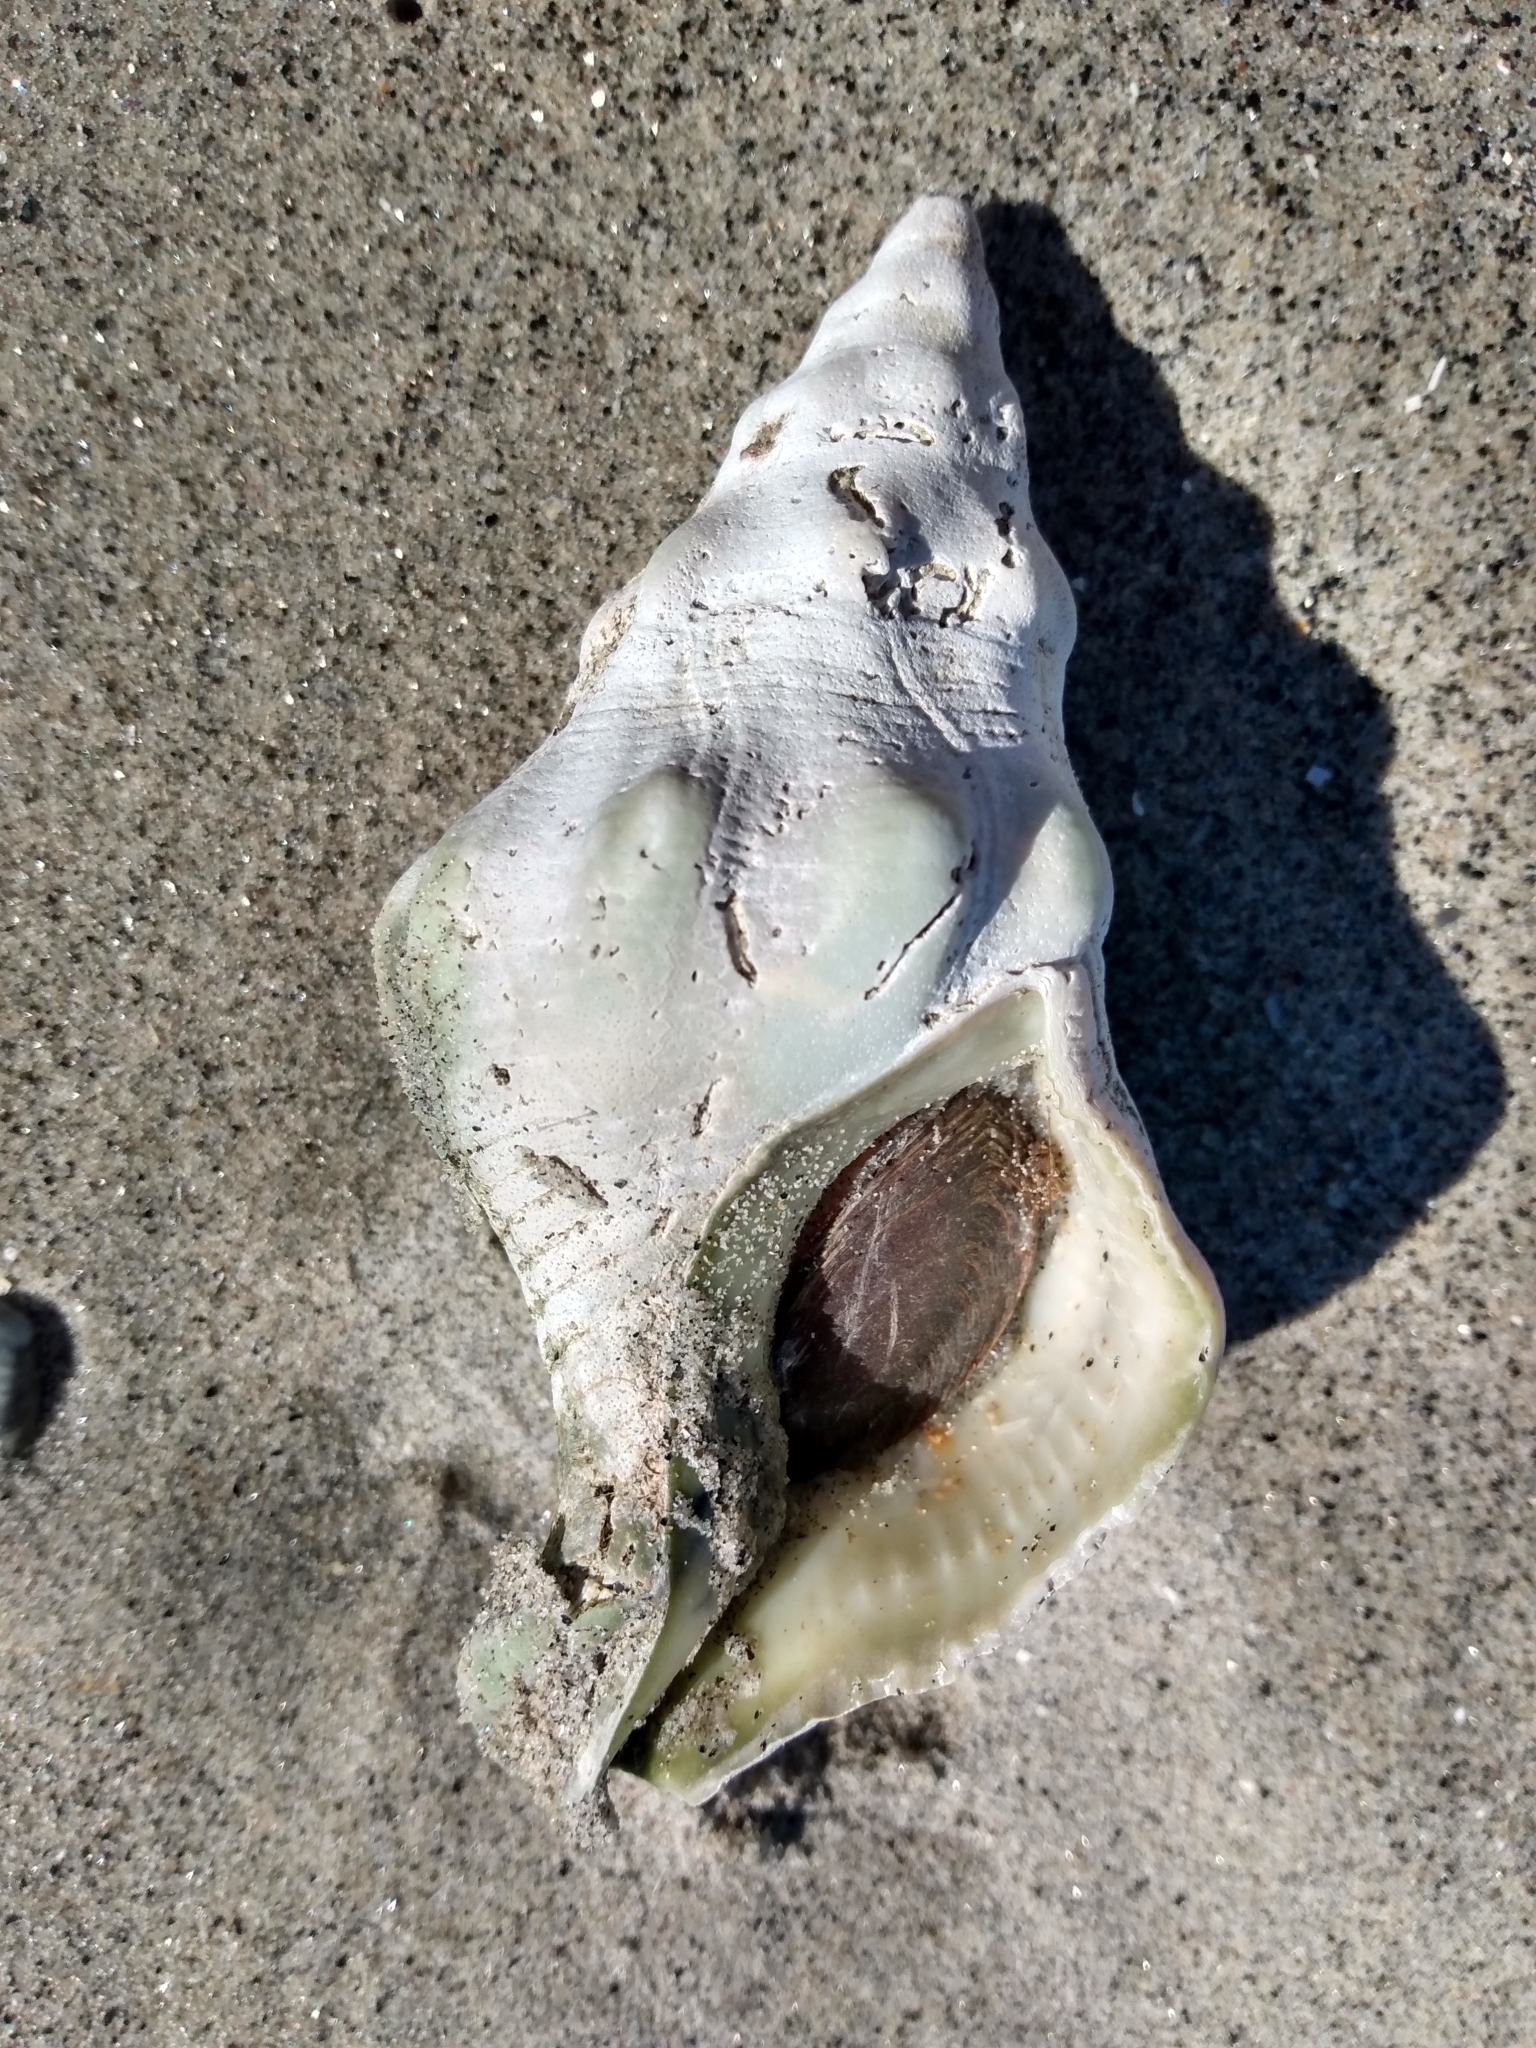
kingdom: Animalia
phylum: Mollusca
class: Gastropoda
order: Neogastropoda
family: Austrosiphonidae
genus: Kelletia
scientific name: Kelletia kelletii
